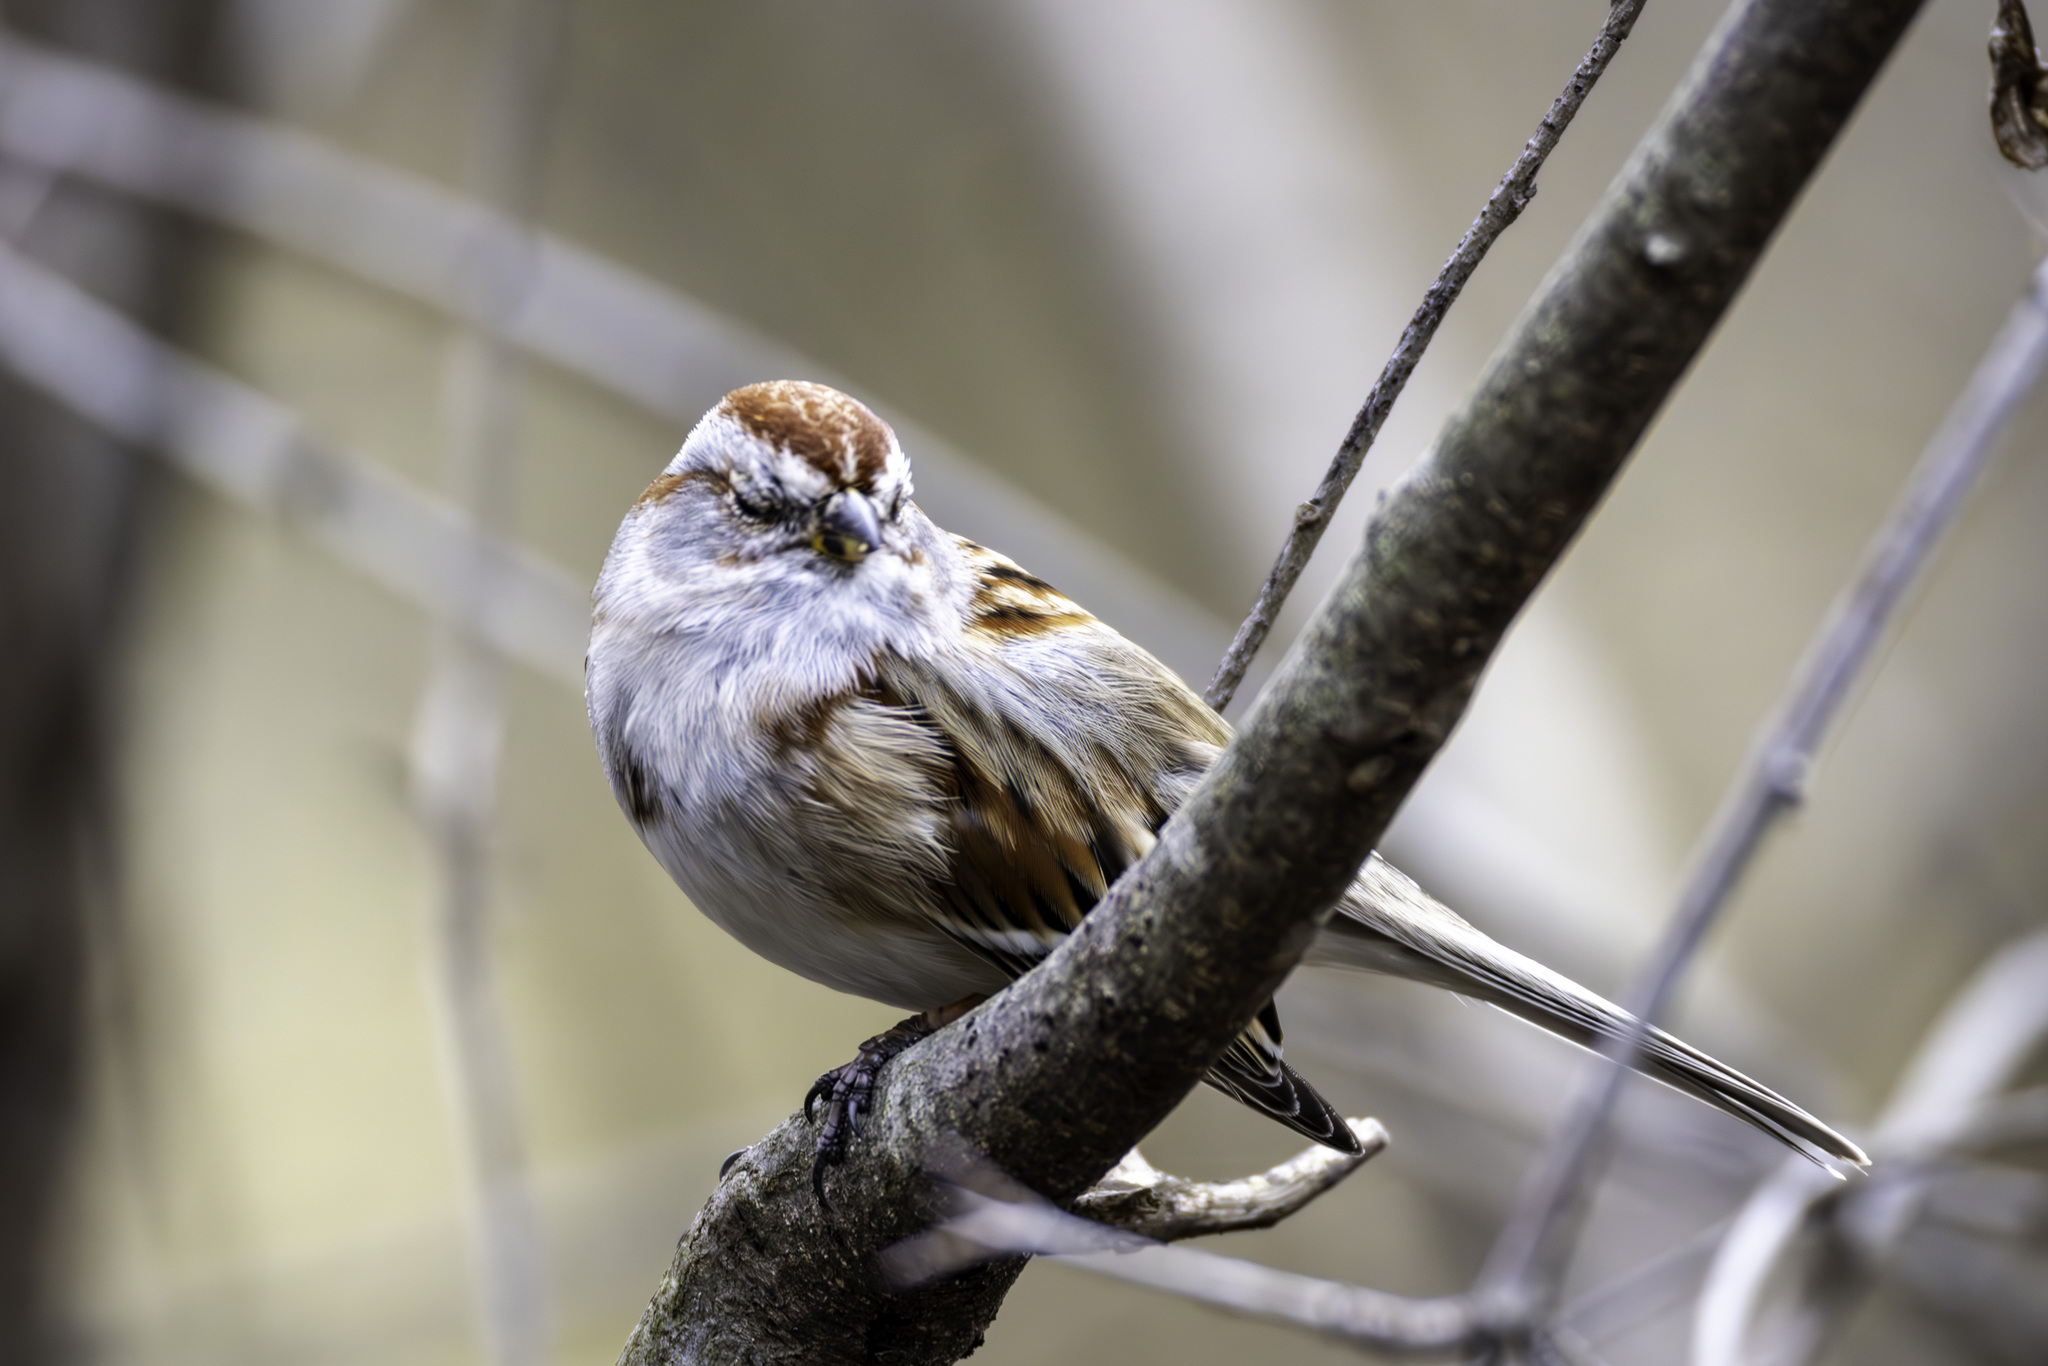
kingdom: Animalia
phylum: Chordata
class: Aves
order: Passeriformes
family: Passerellidae
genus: Spizelloides
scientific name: Spizelloides arborea
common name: American tree sparrow
